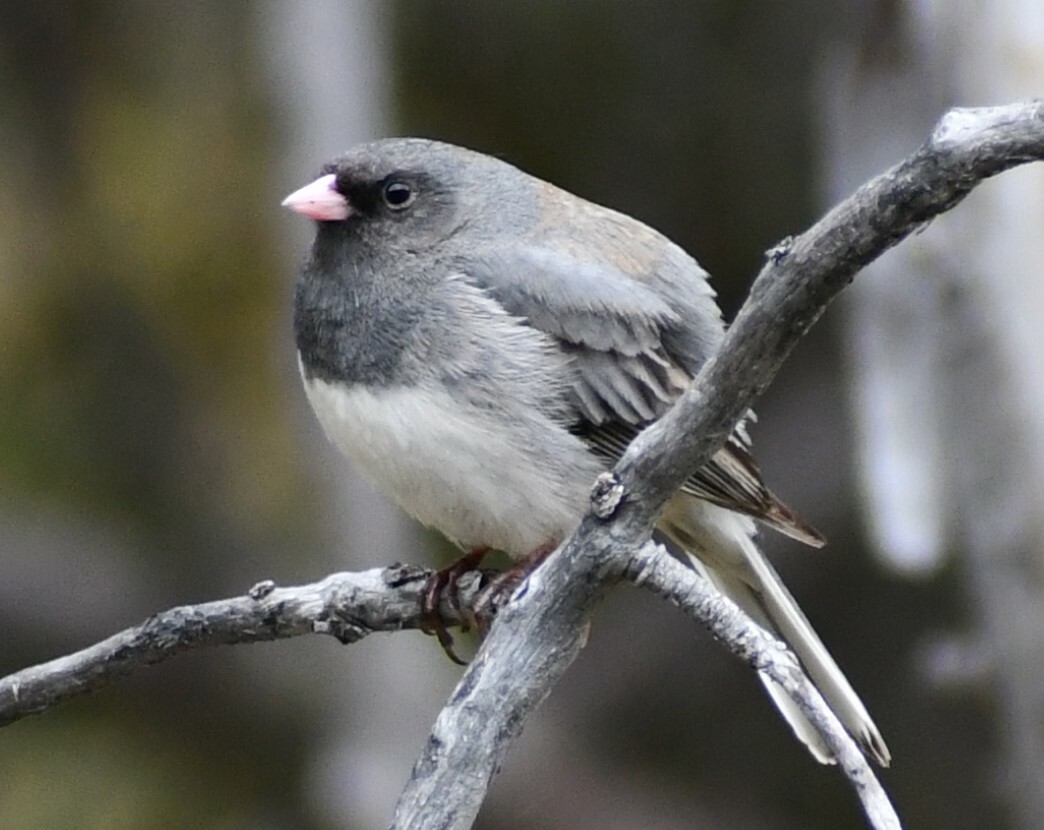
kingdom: Animalia
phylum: Chordata
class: Aves
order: Passeriformes
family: Passerellidae
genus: Junco
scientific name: Junco hyemalis
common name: Dark-eyed junco
